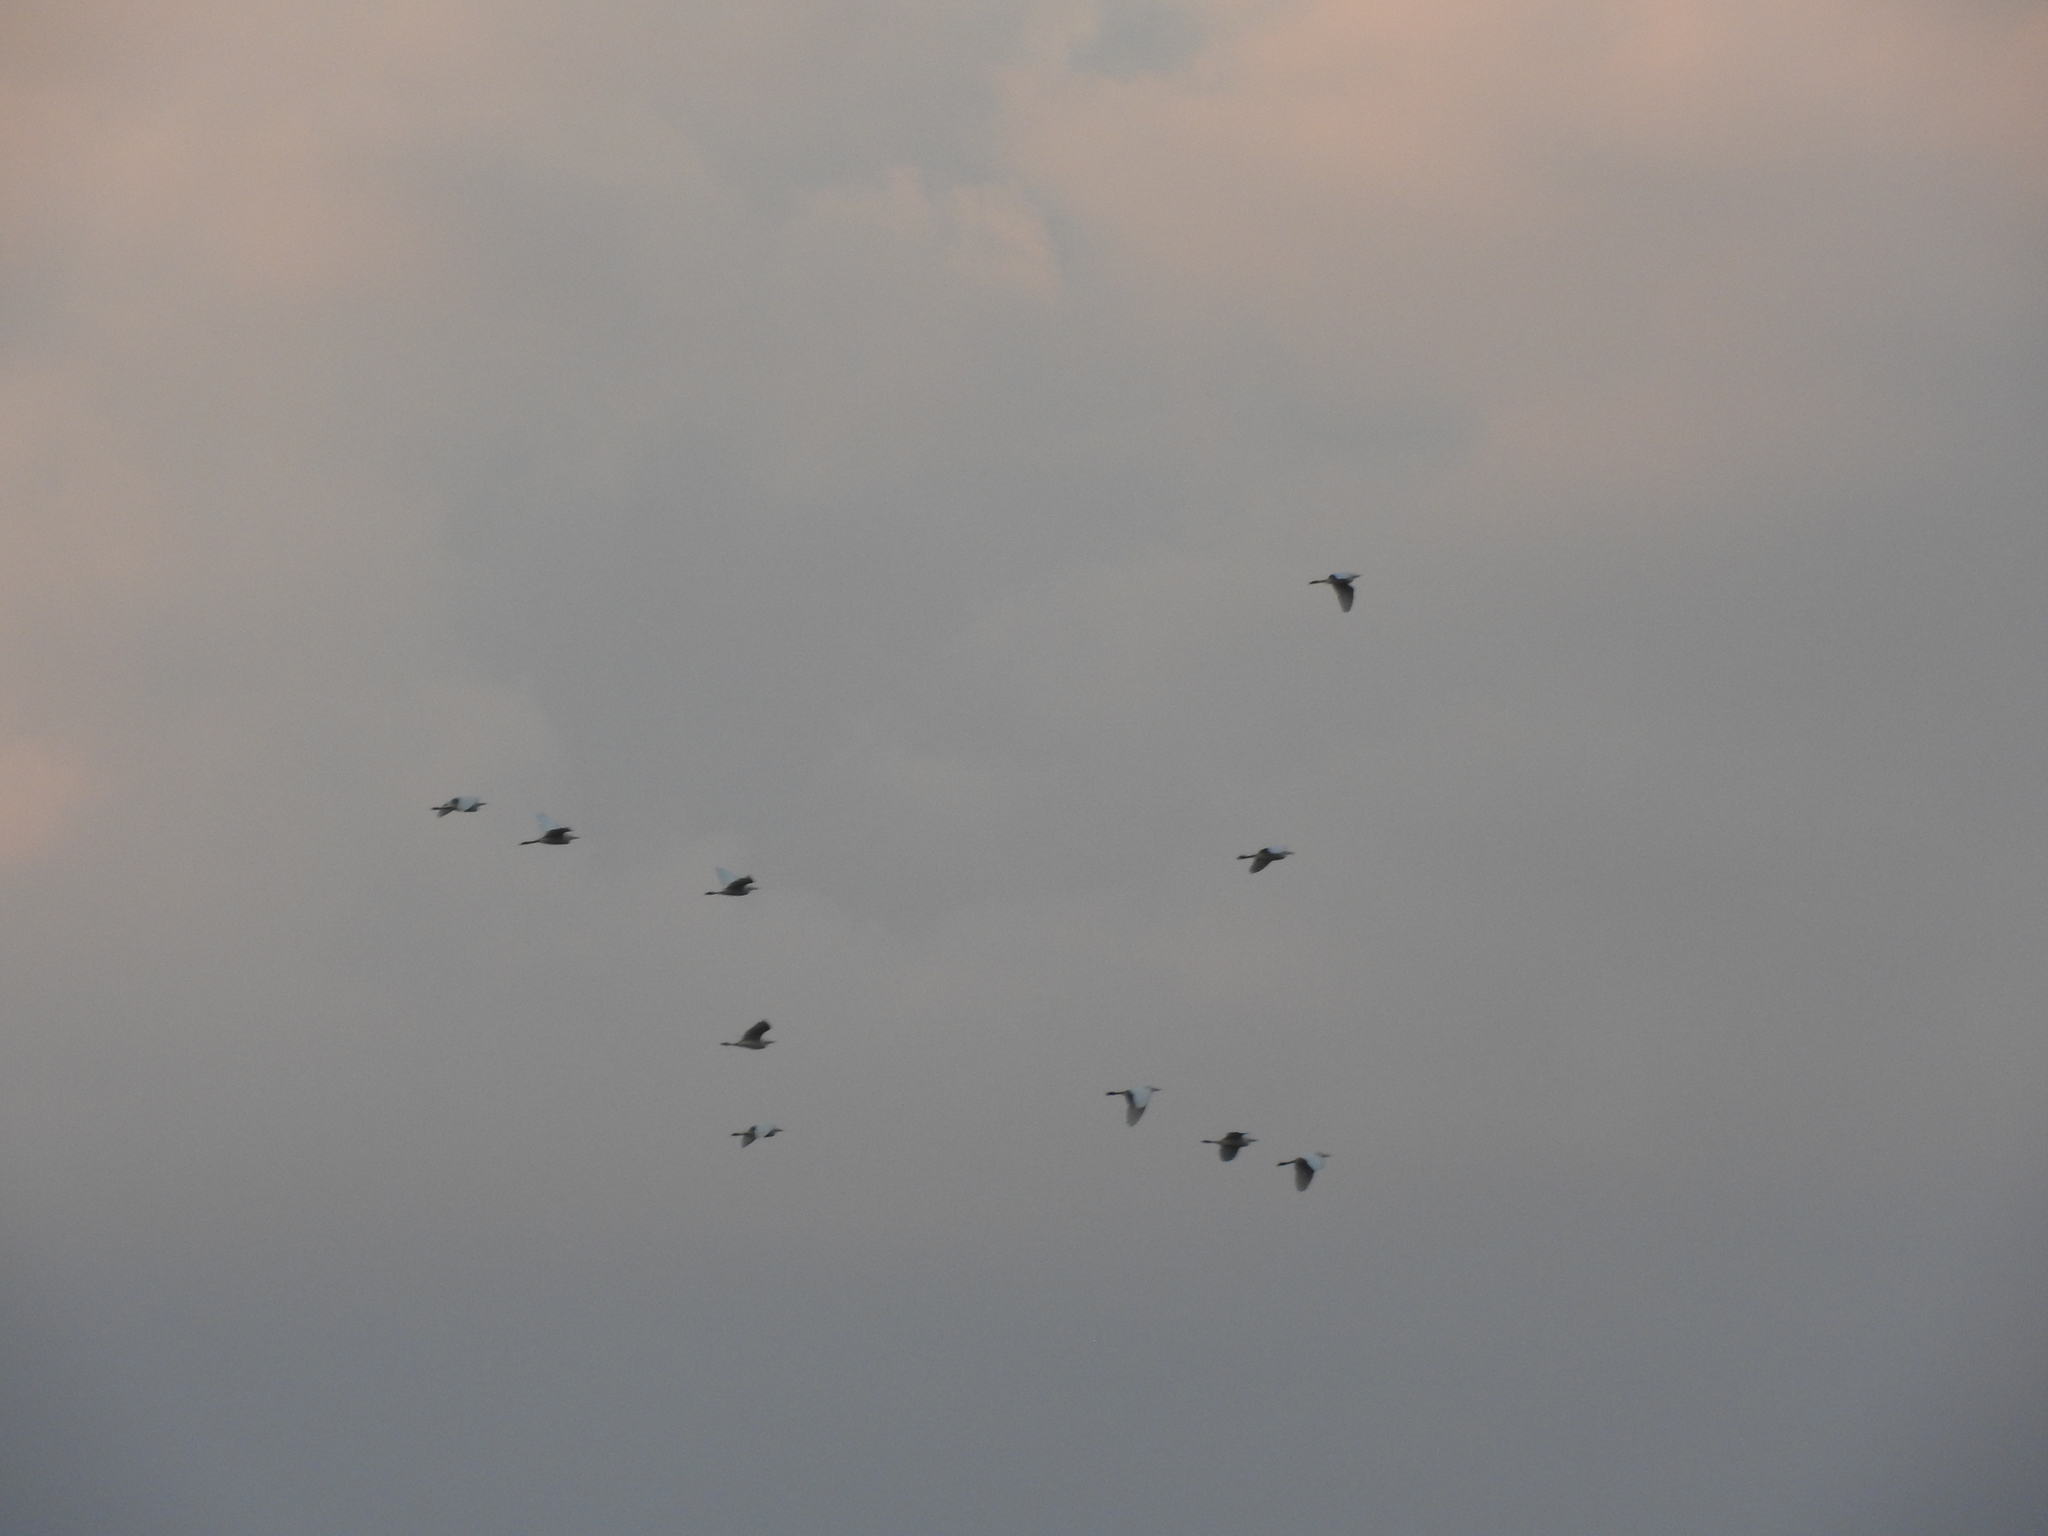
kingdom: Animalia
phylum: Chordata
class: Aves
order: Pelecaniformes
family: Ardeidae
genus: Bubulcus
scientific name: Bubulcus ibis
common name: Cattle egret
